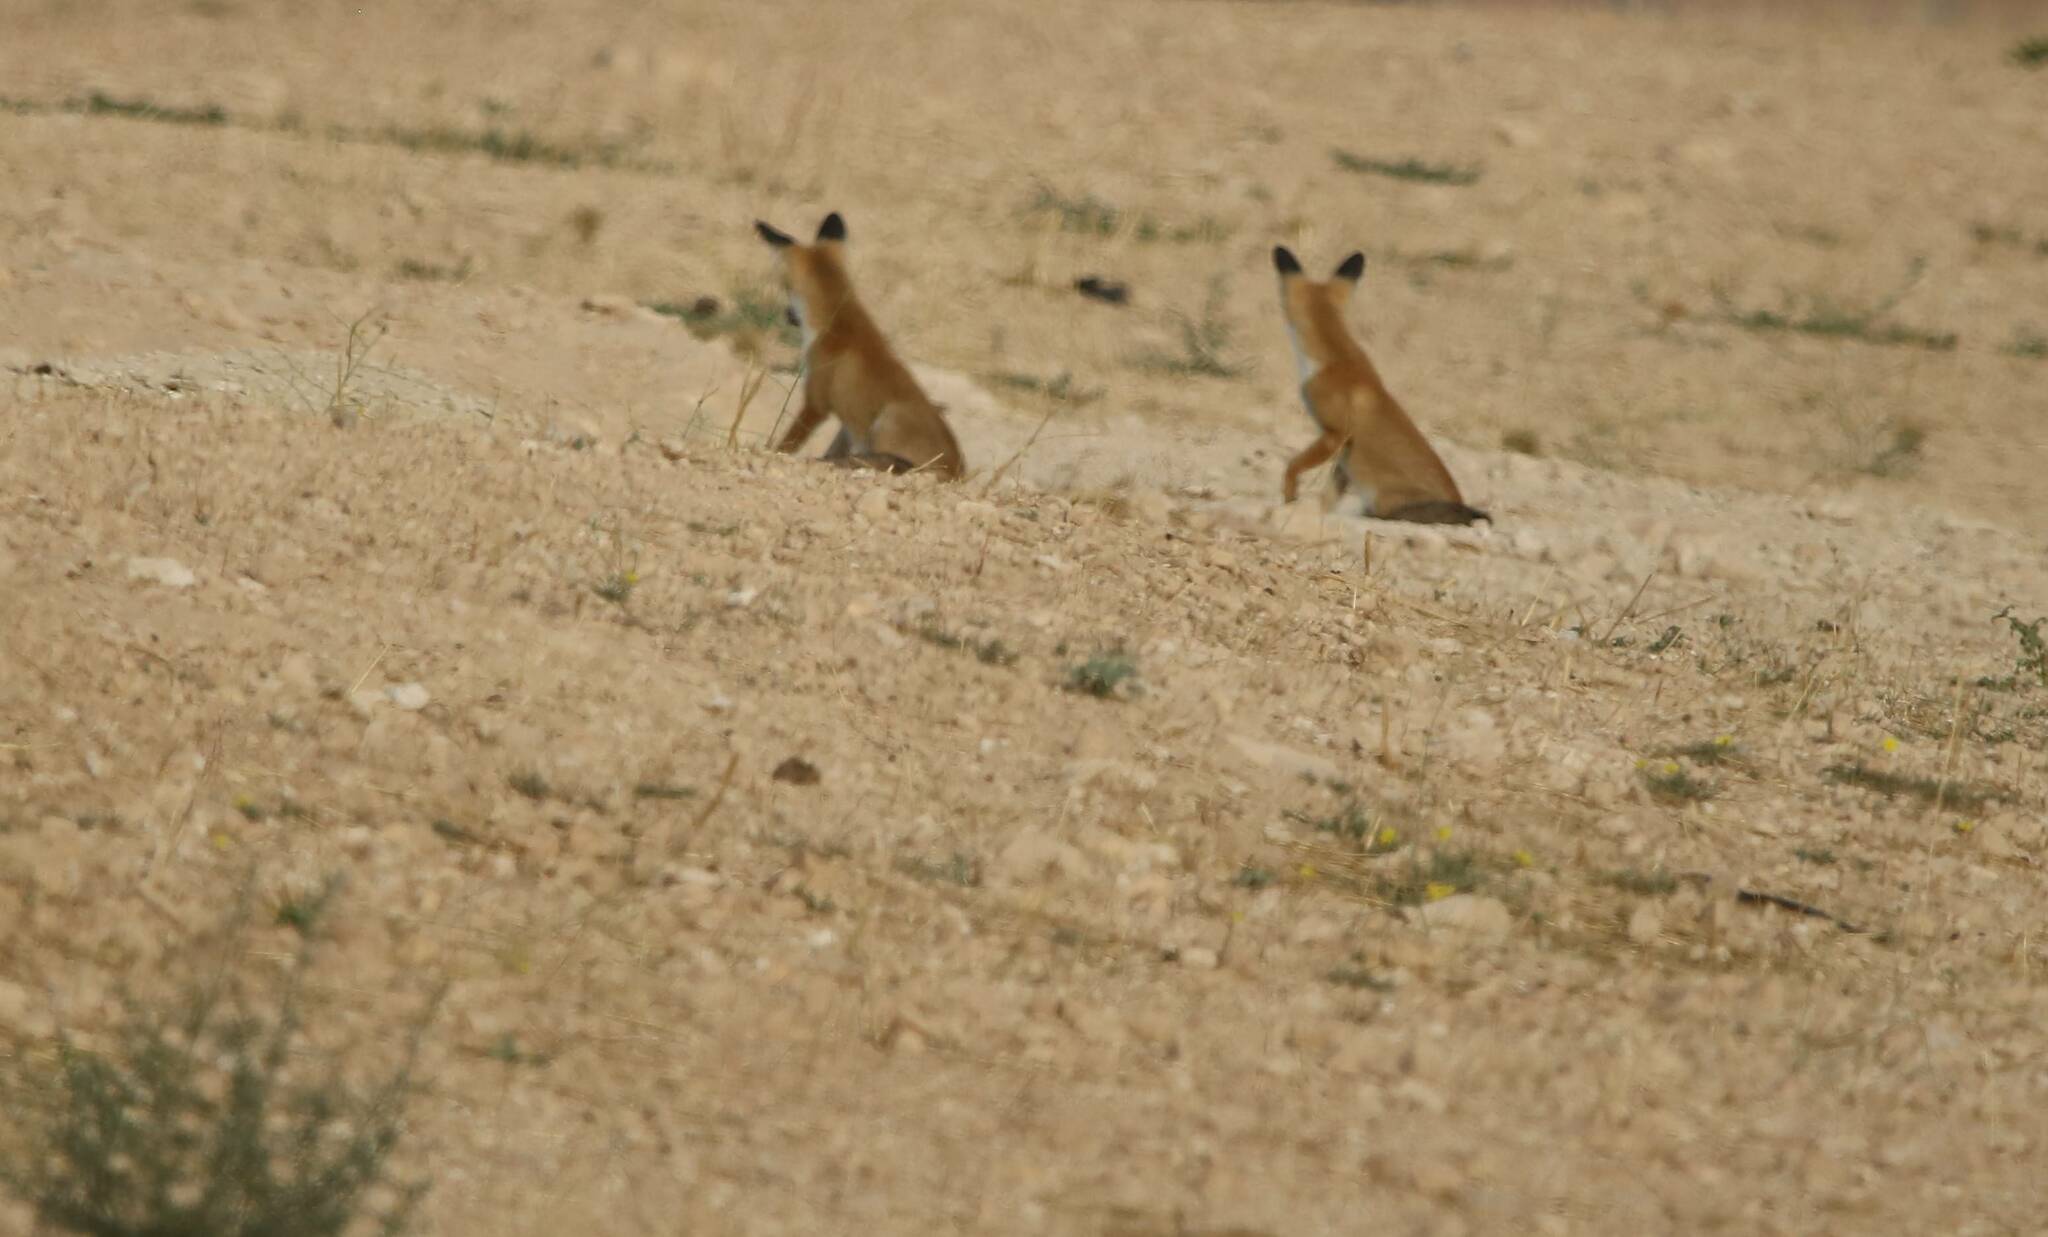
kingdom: Animalia
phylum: Chordata
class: Mammalia
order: Carnivora
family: Canidae
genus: Vulpes
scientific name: Vulpes vulpes
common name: Red fox
